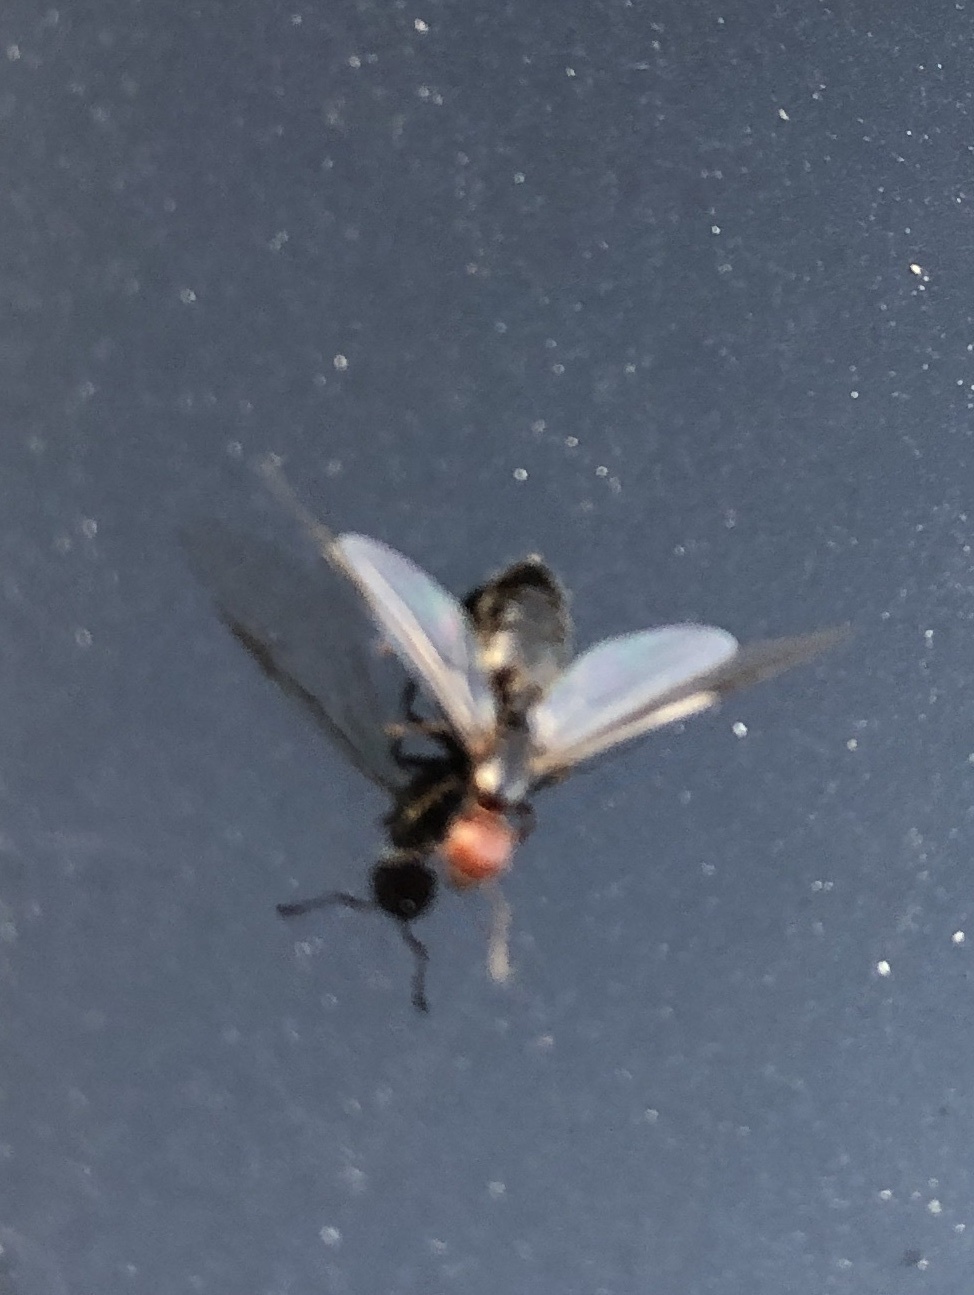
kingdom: Animalia
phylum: Arthropoda
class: Insecta
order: Hymenoptera
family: Formicidae
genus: Crematogaster
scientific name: Crematogaster scutellaris
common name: Fourmi du liège
